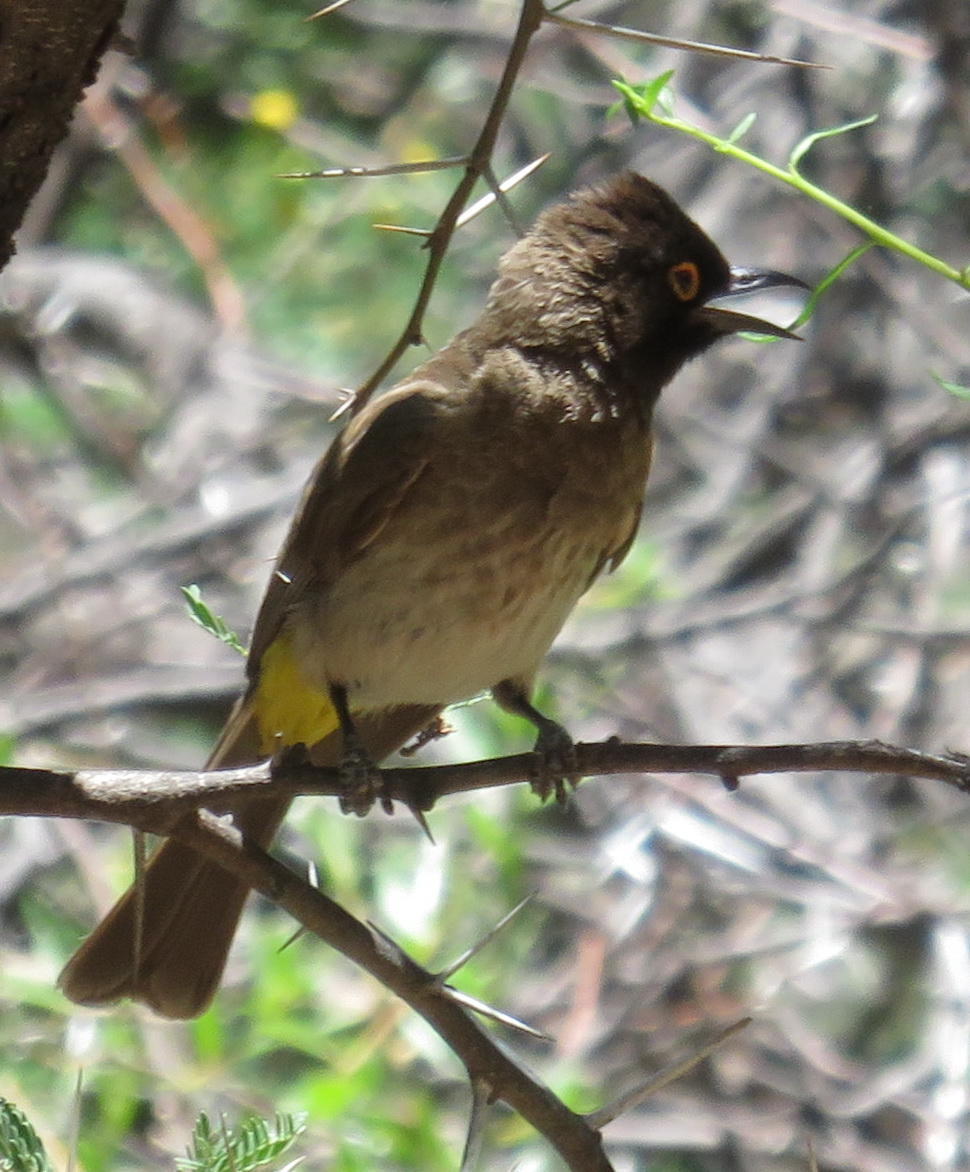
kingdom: Animalia
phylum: Chordata
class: Aves
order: Passeriformes
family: Pycnonotidae
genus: Pycnonotus
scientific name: Pycnonotus nigricans
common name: African red-eyed bulbul
